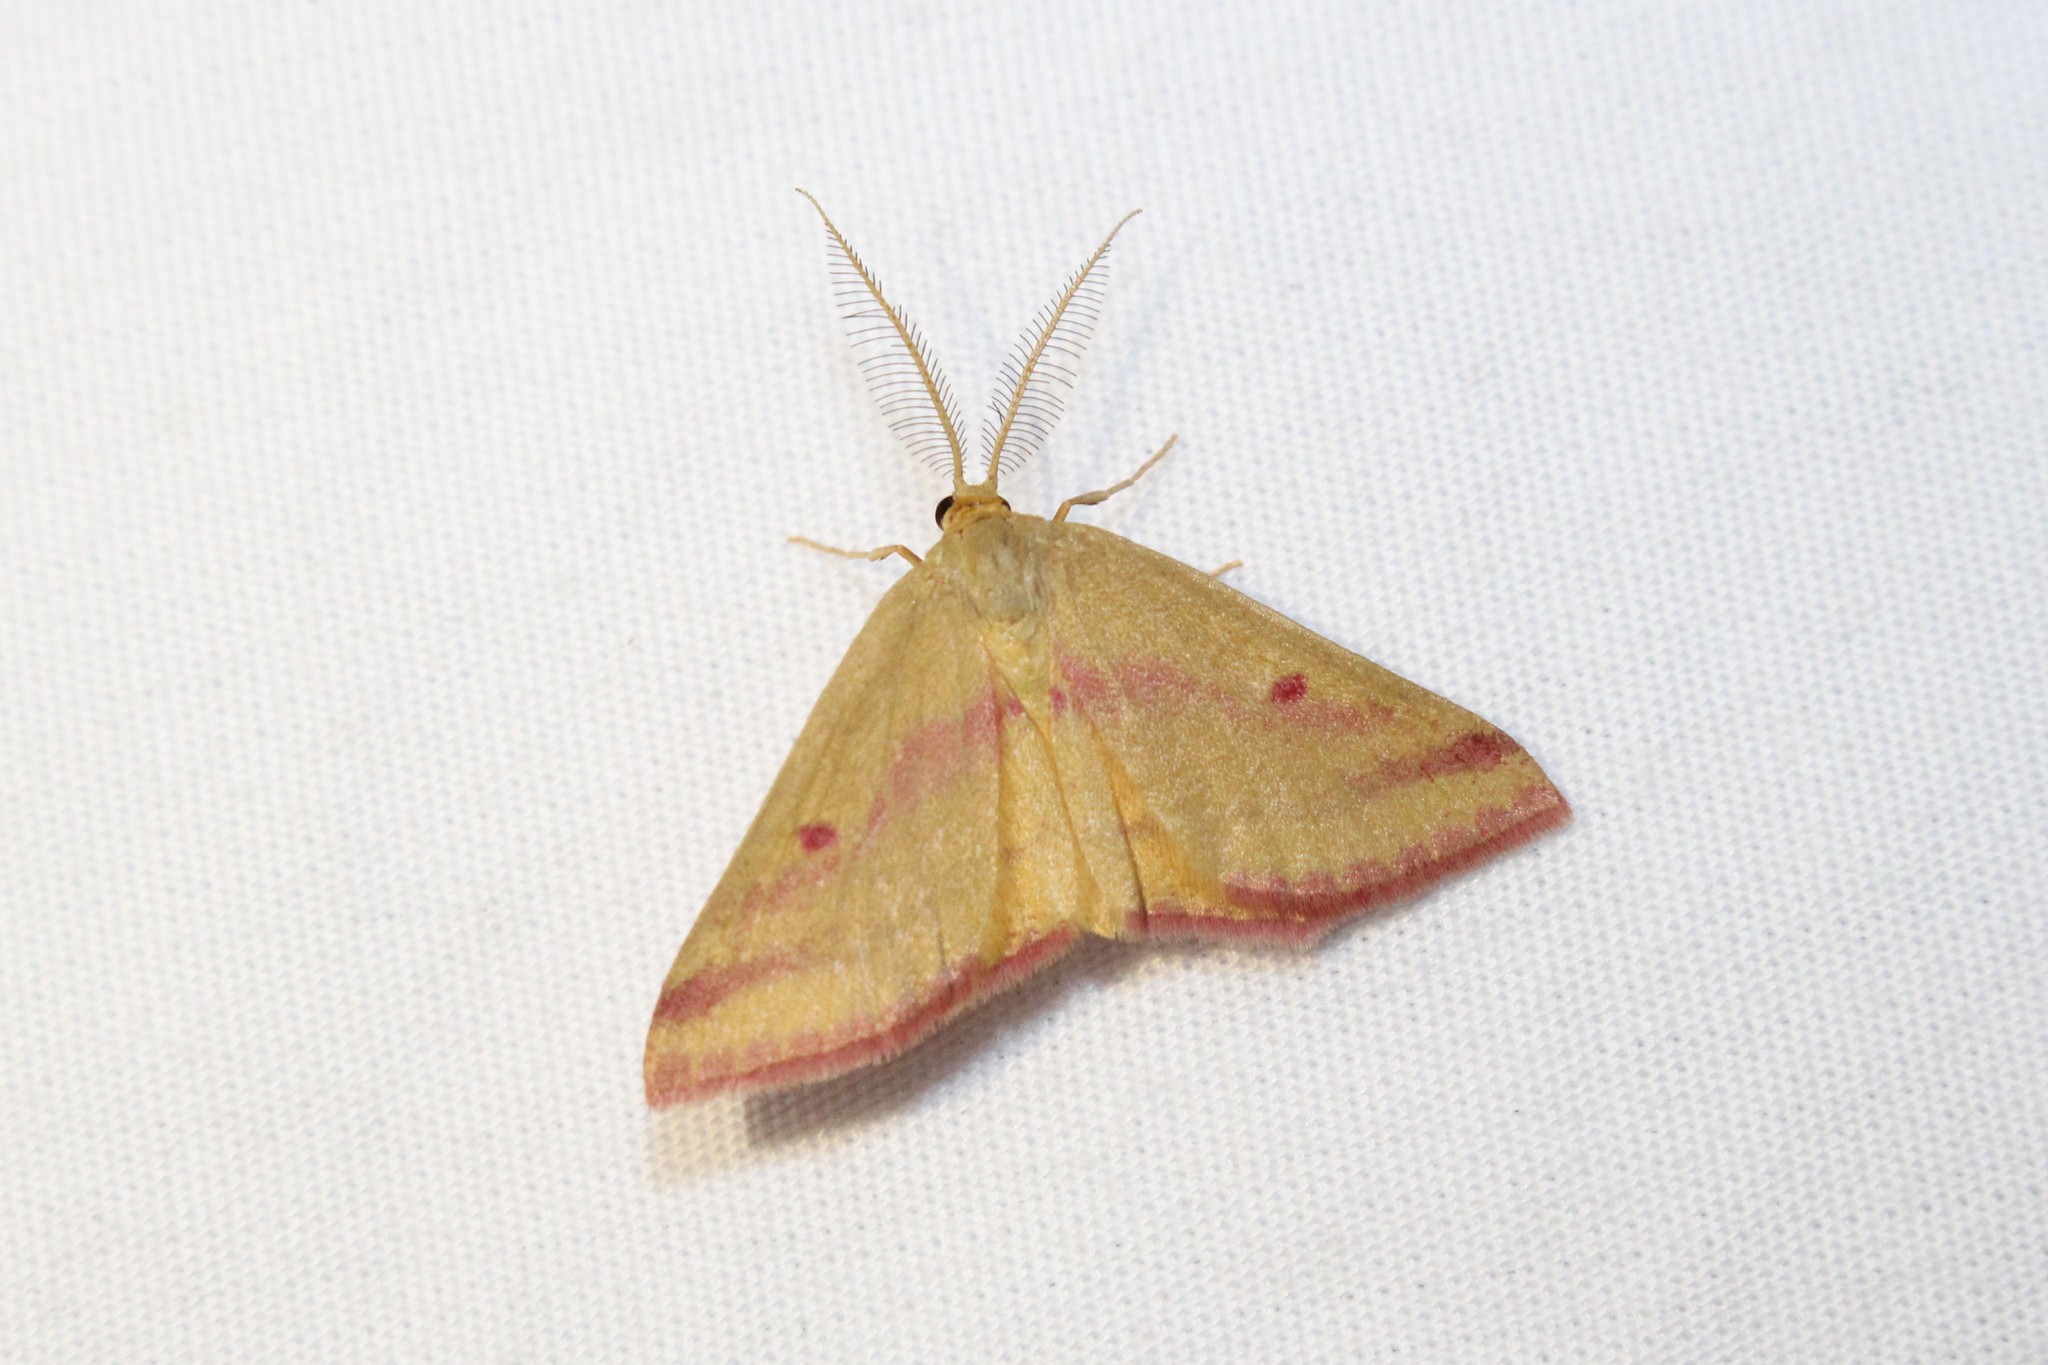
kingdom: Animalia
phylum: Arthropoda
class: Insecta
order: Lepidoptera
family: Geometridae
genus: Haematopis
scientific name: Haematopis grataria
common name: Chickweed geometer
